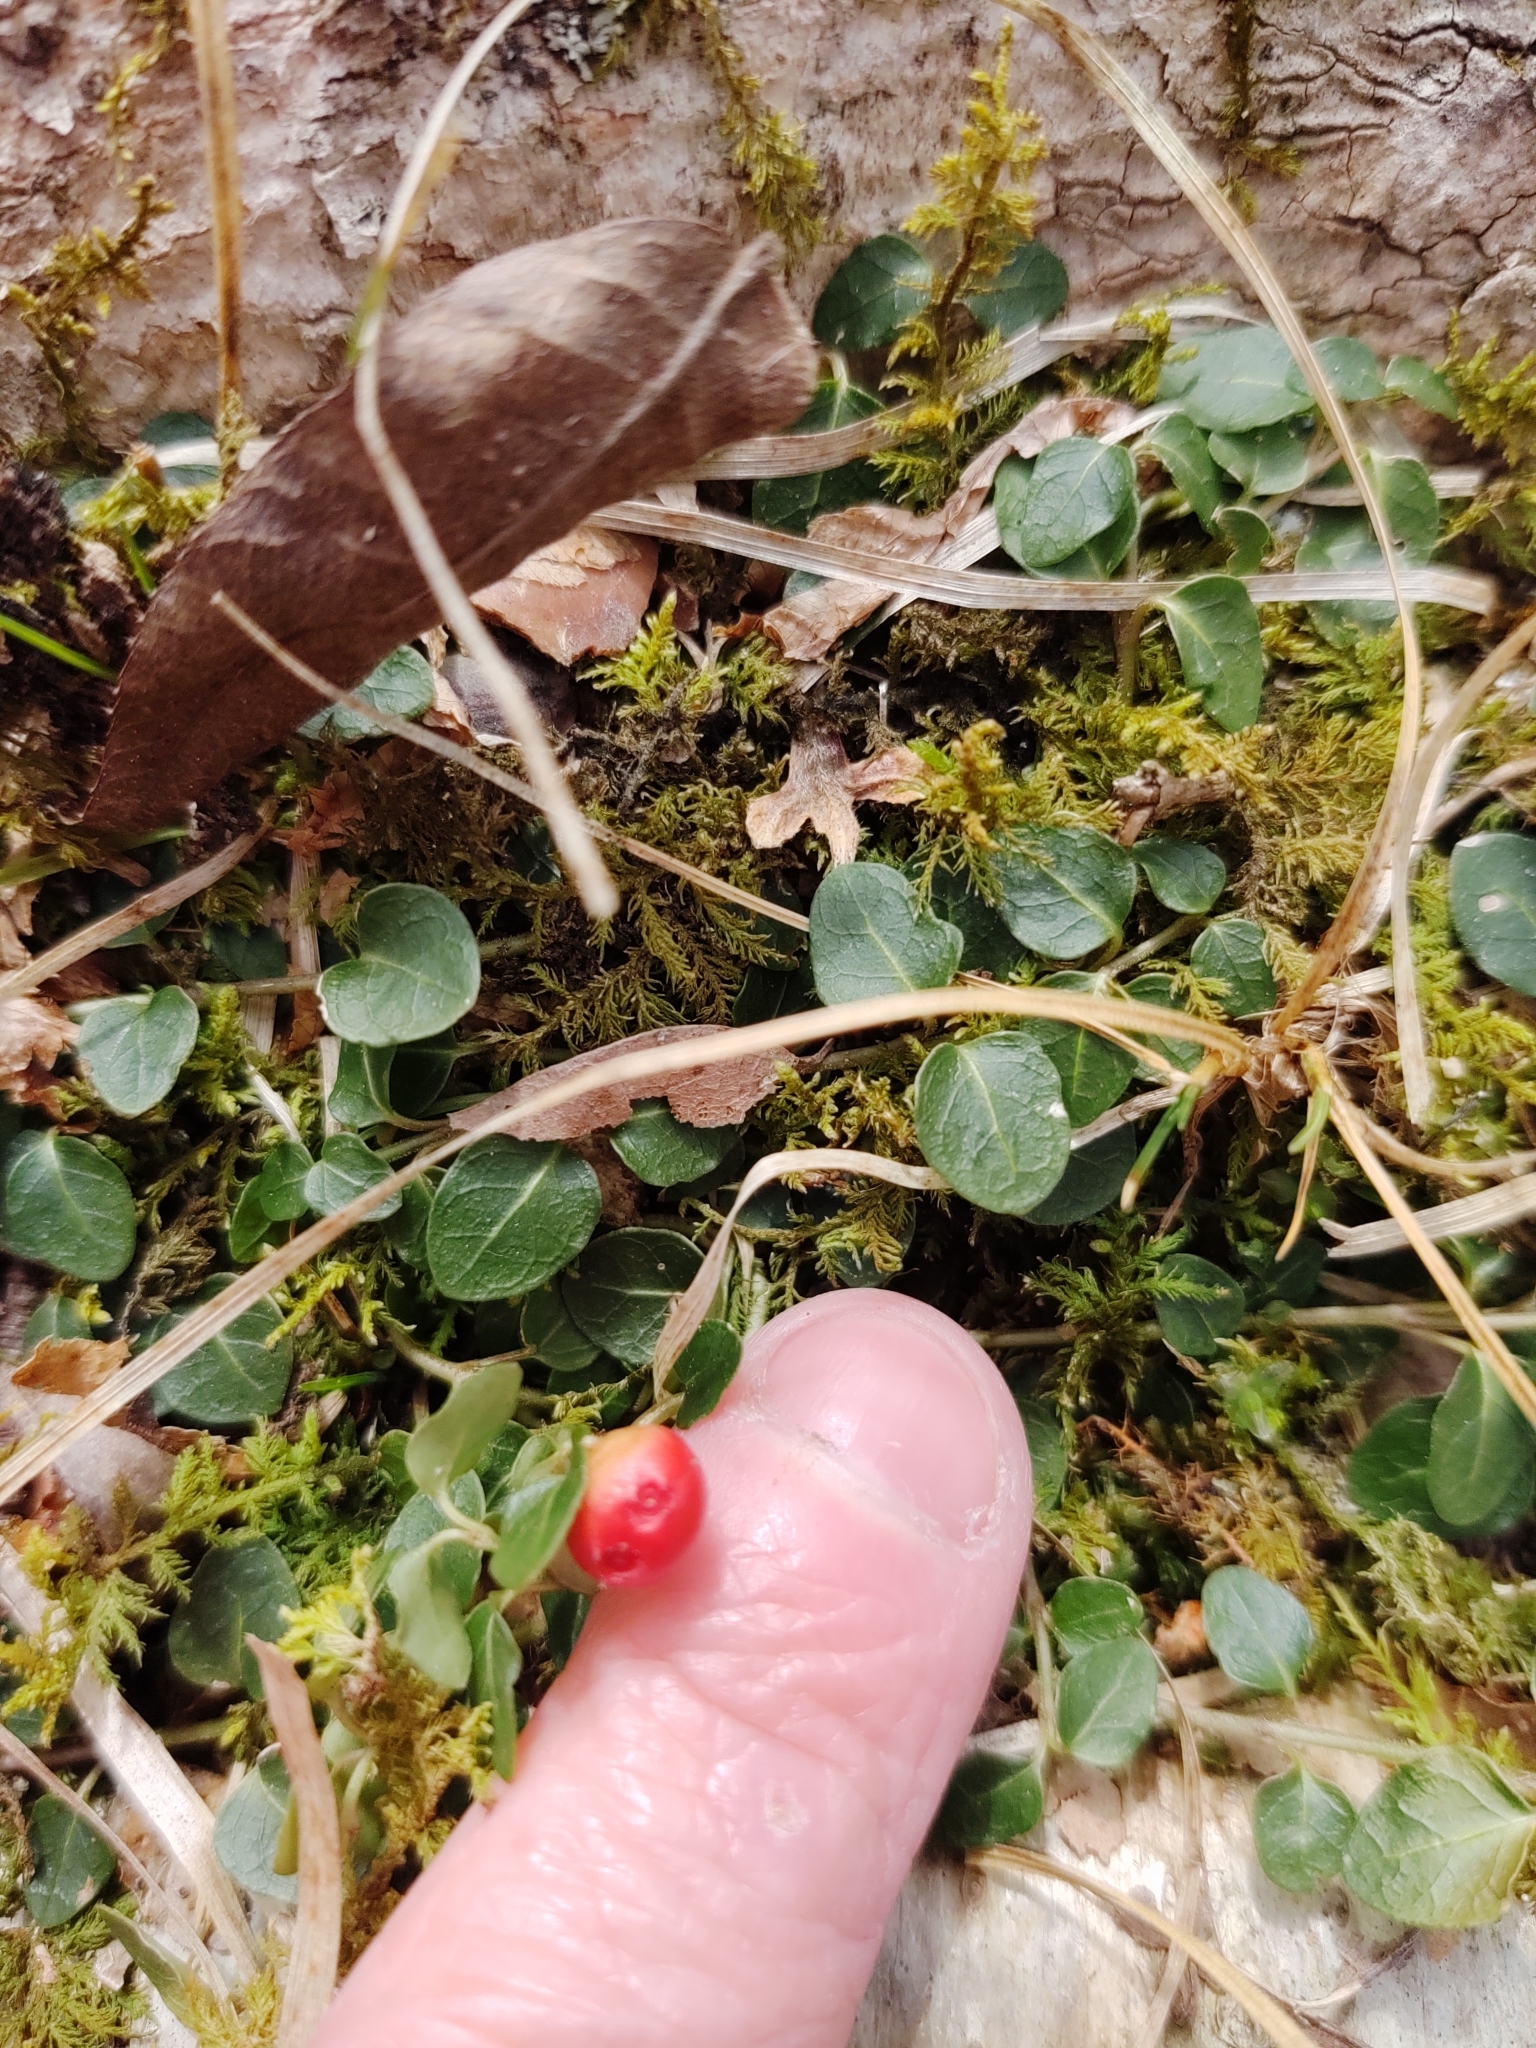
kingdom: Plantae
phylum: Tracheophyta
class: Magnoliopsida
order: Gentianales
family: Rubiaceae
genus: Mitchella
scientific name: Mitchella repens
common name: Partridge-berry
